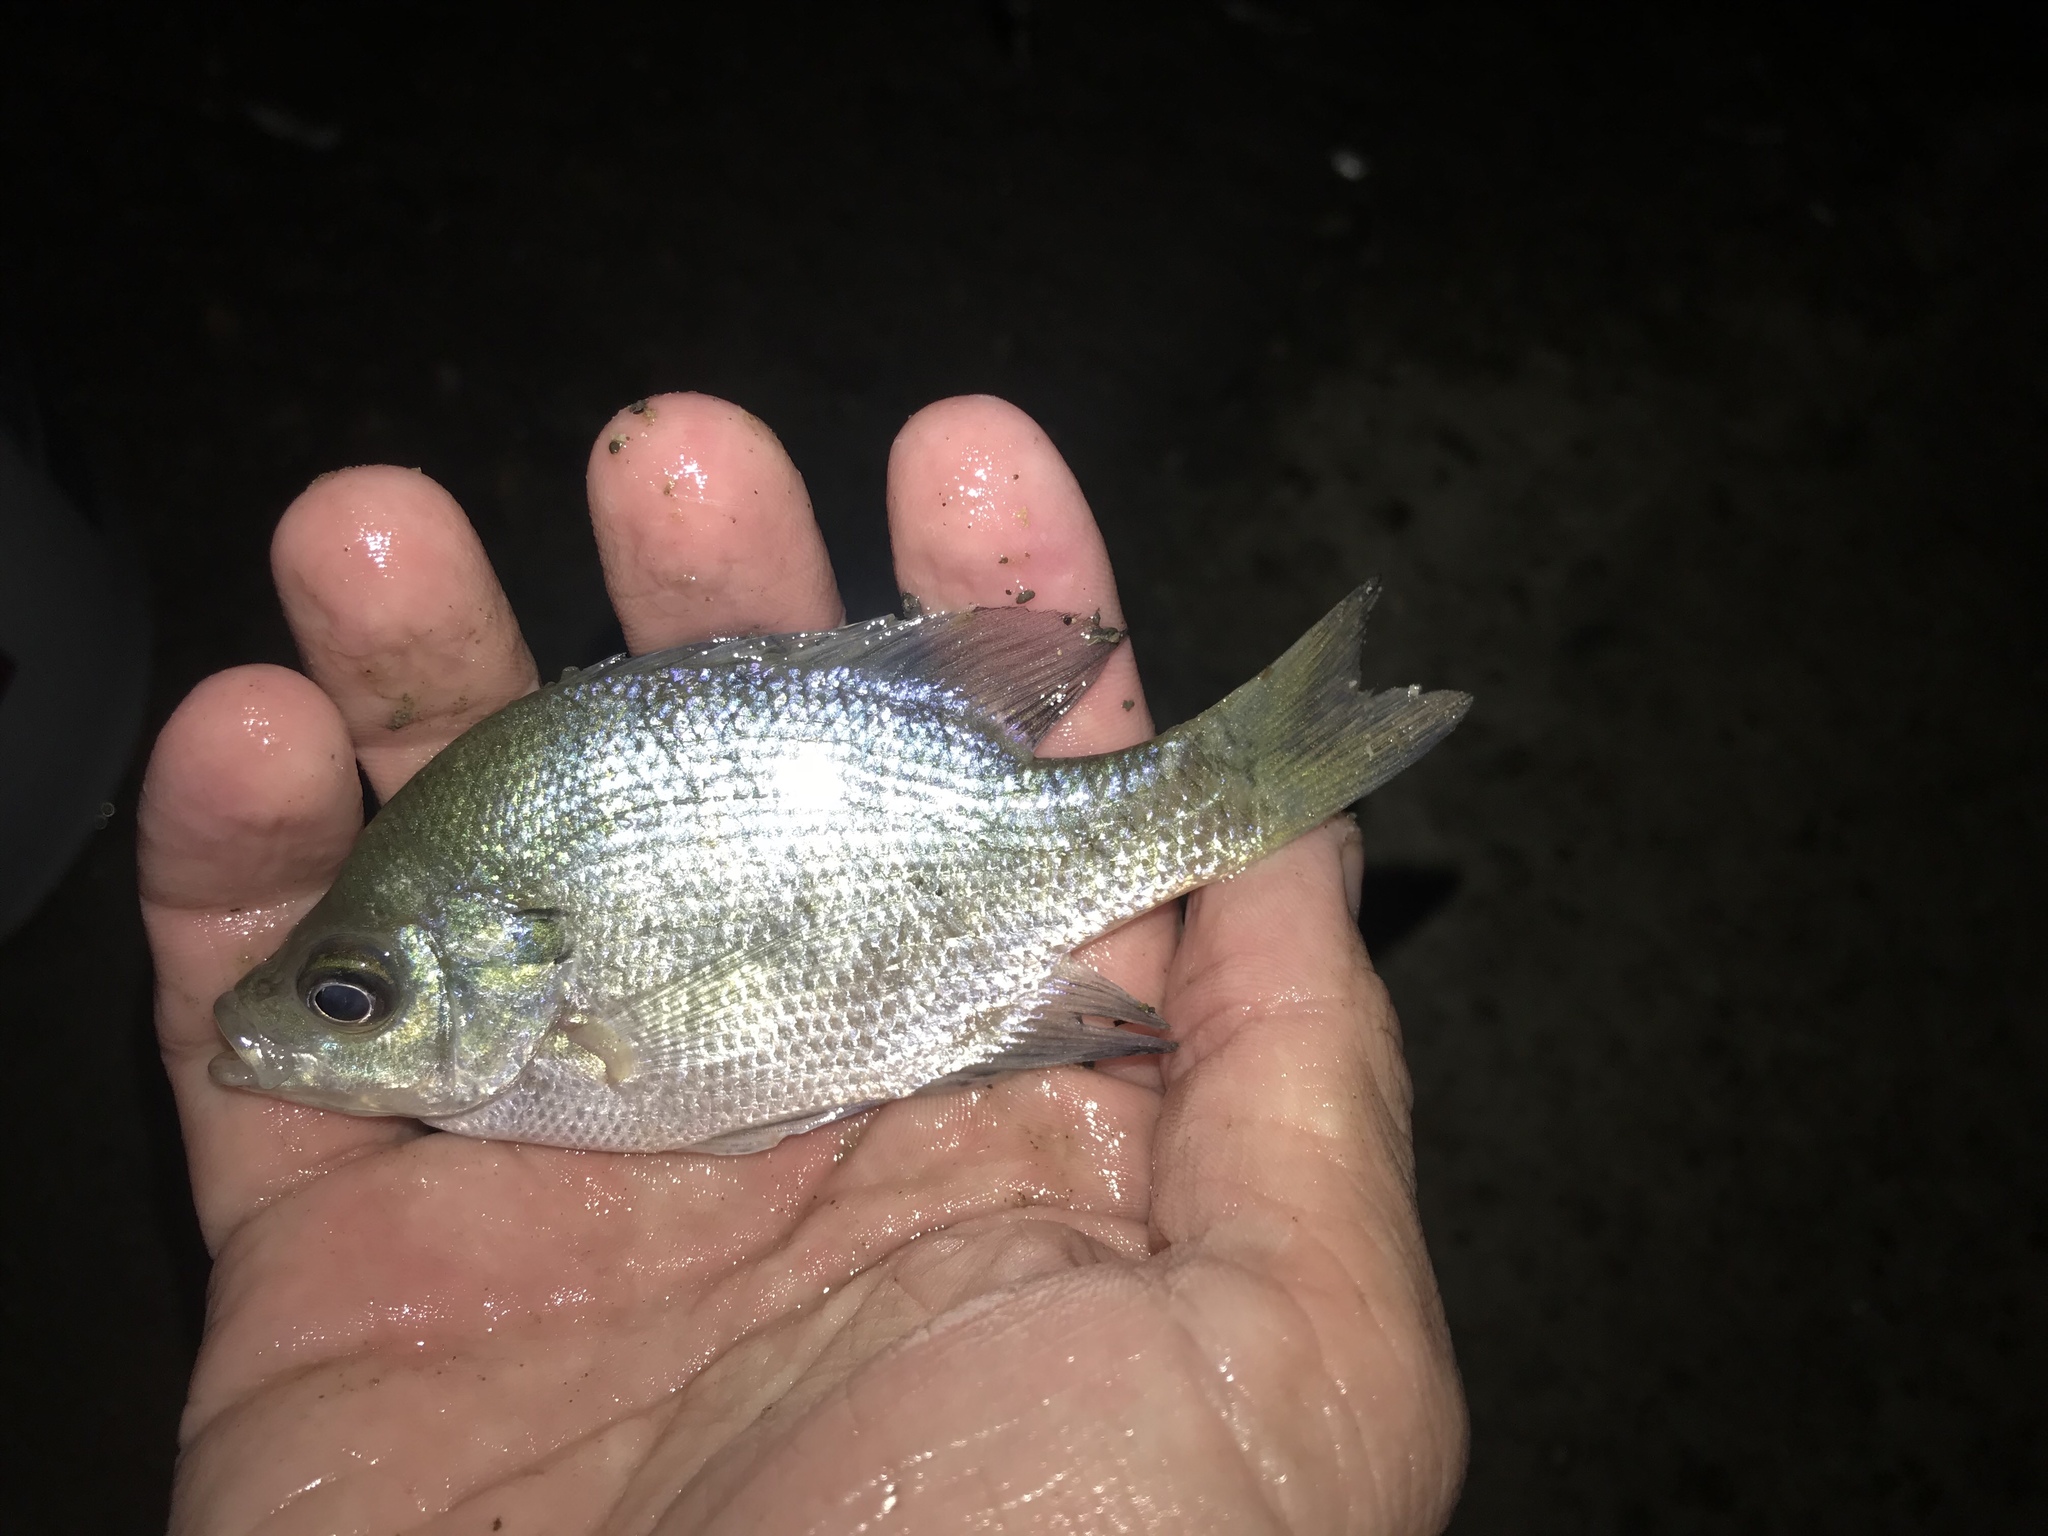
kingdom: Animalia
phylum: Chordata
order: Perciformes
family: Centrarchidae
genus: Lepomis
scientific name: Lepomis macrochirus
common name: Bluegill
